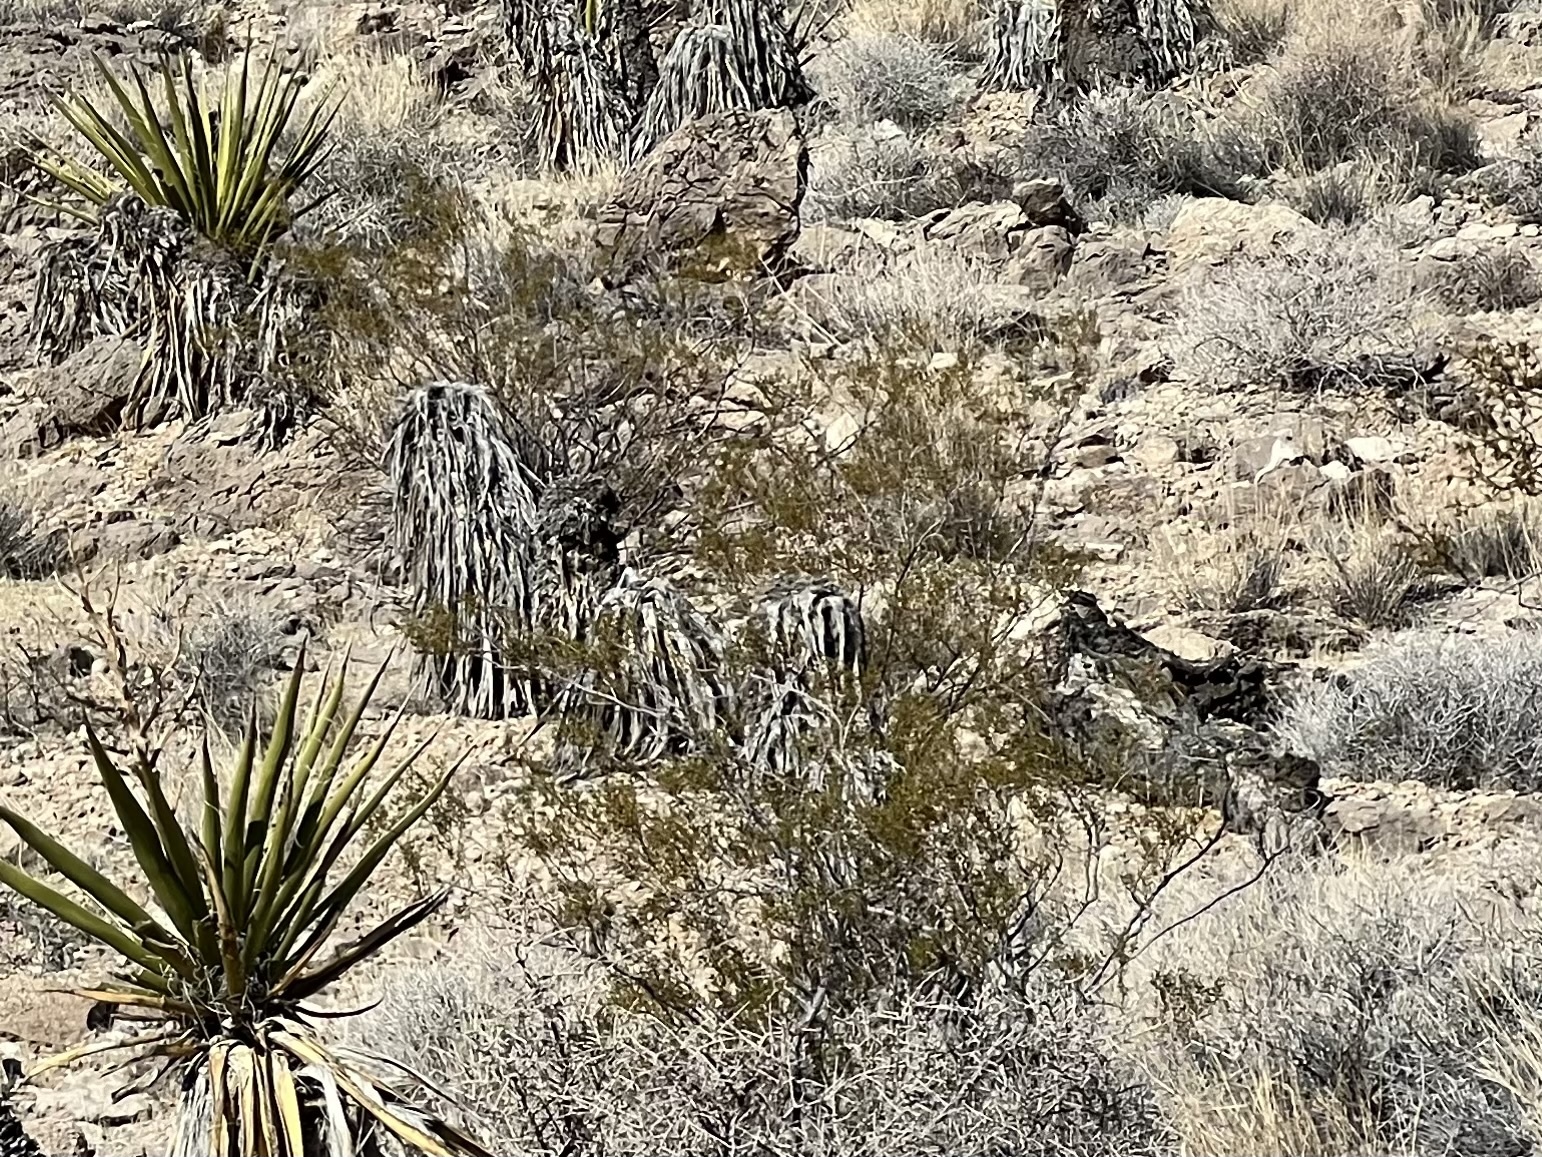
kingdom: Plantae
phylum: Tracheophyta
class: Magnoliopsida
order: Zygophyllales
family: Zygophyllaceae
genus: Larrea
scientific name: Larrea tridentata
